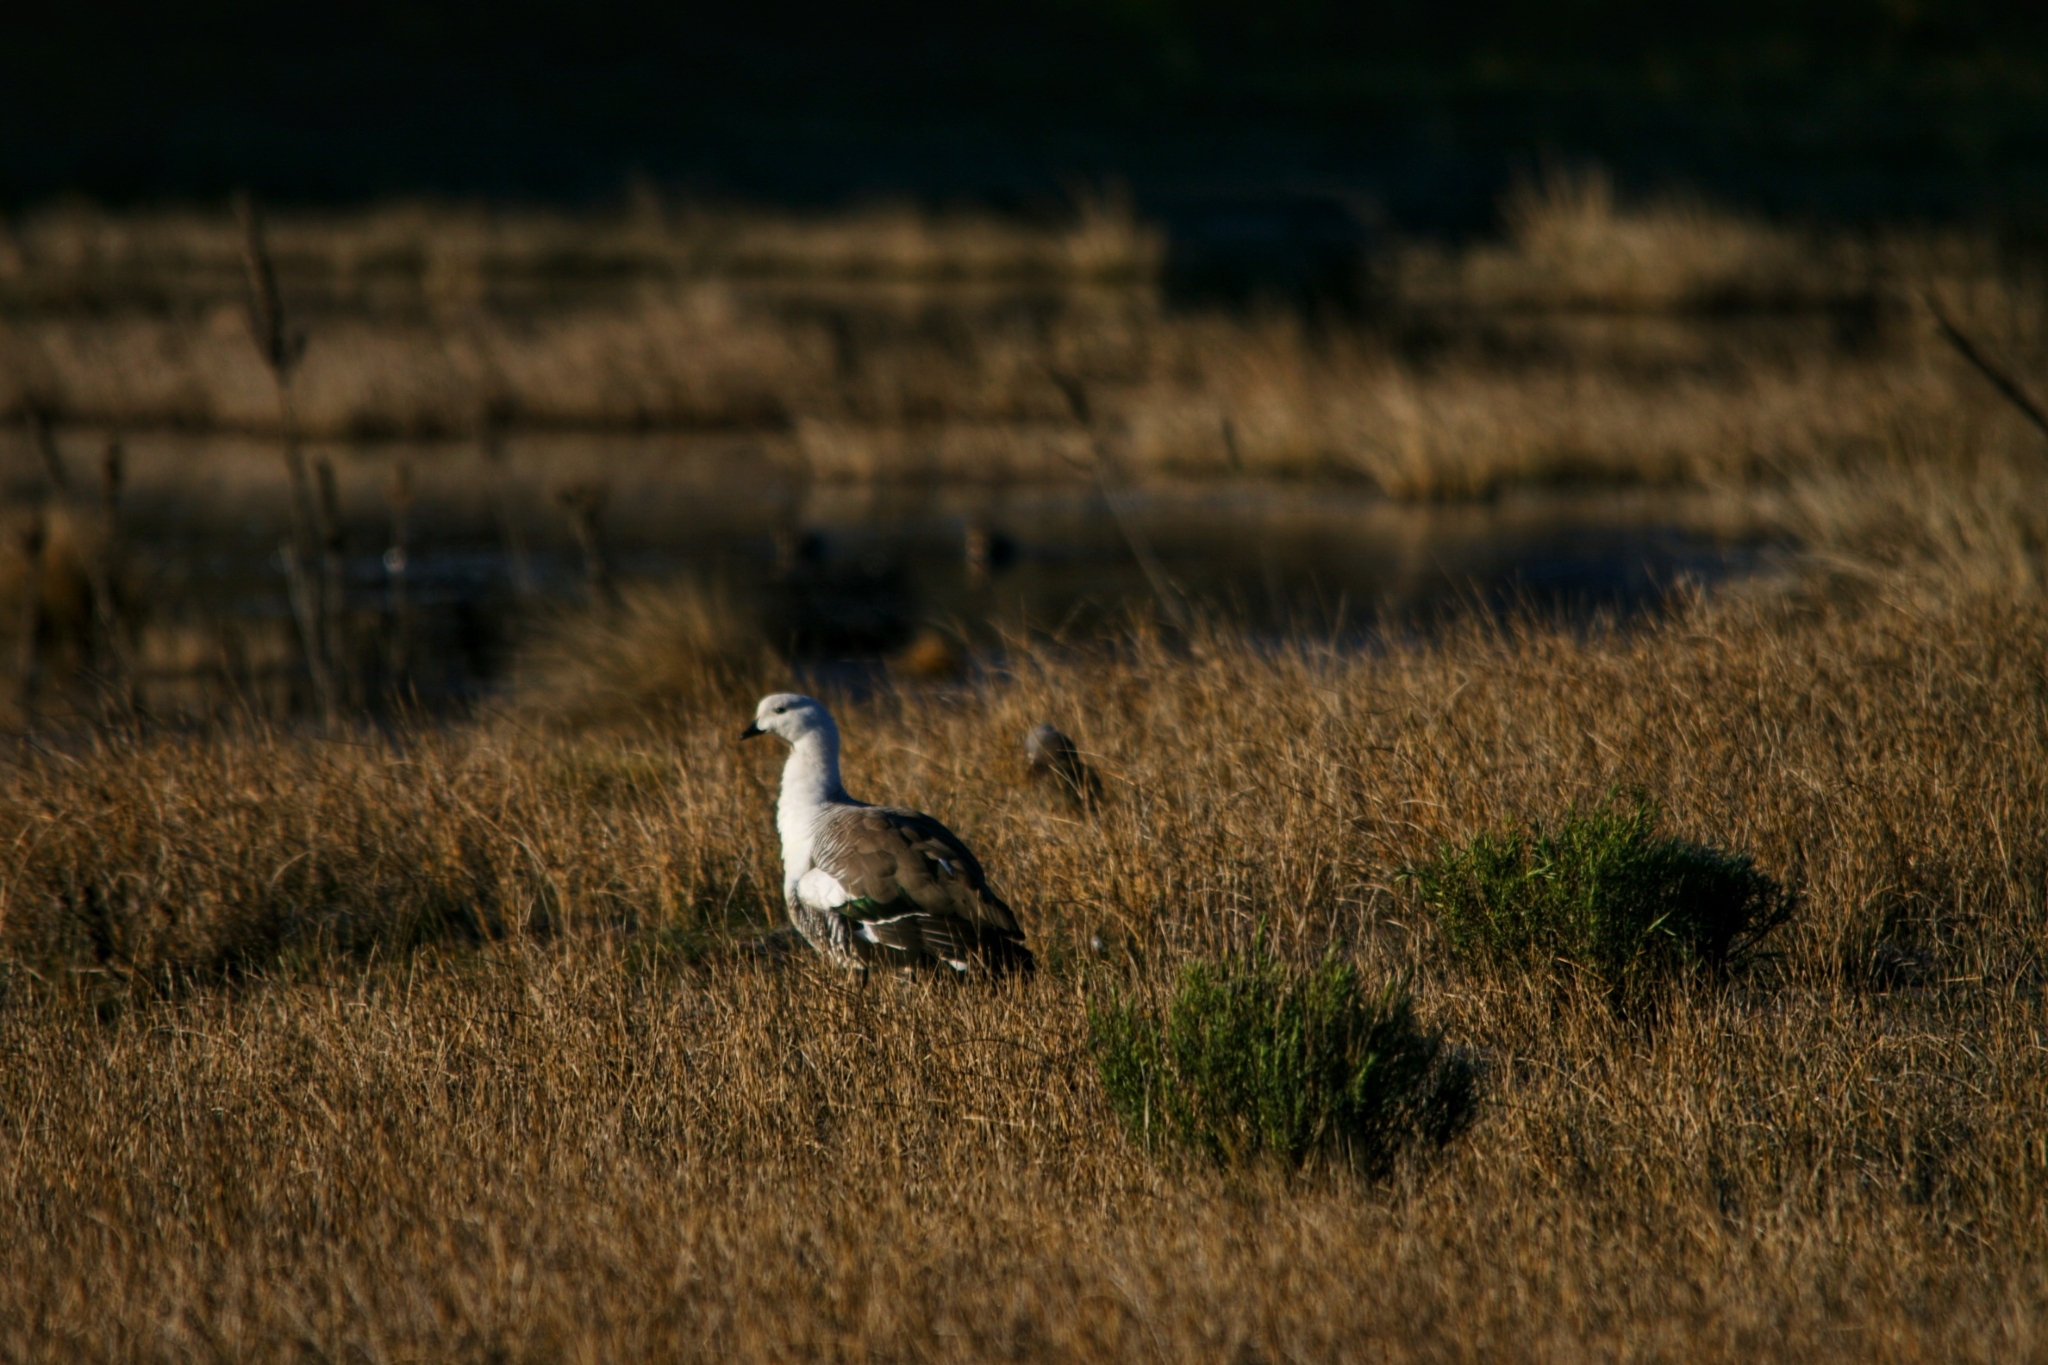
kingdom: Animalia
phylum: Chordata
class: Aves
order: Anseriformes
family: Anatidae
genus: Chloephaga
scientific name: Chloephaga picta
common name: Upland goose
